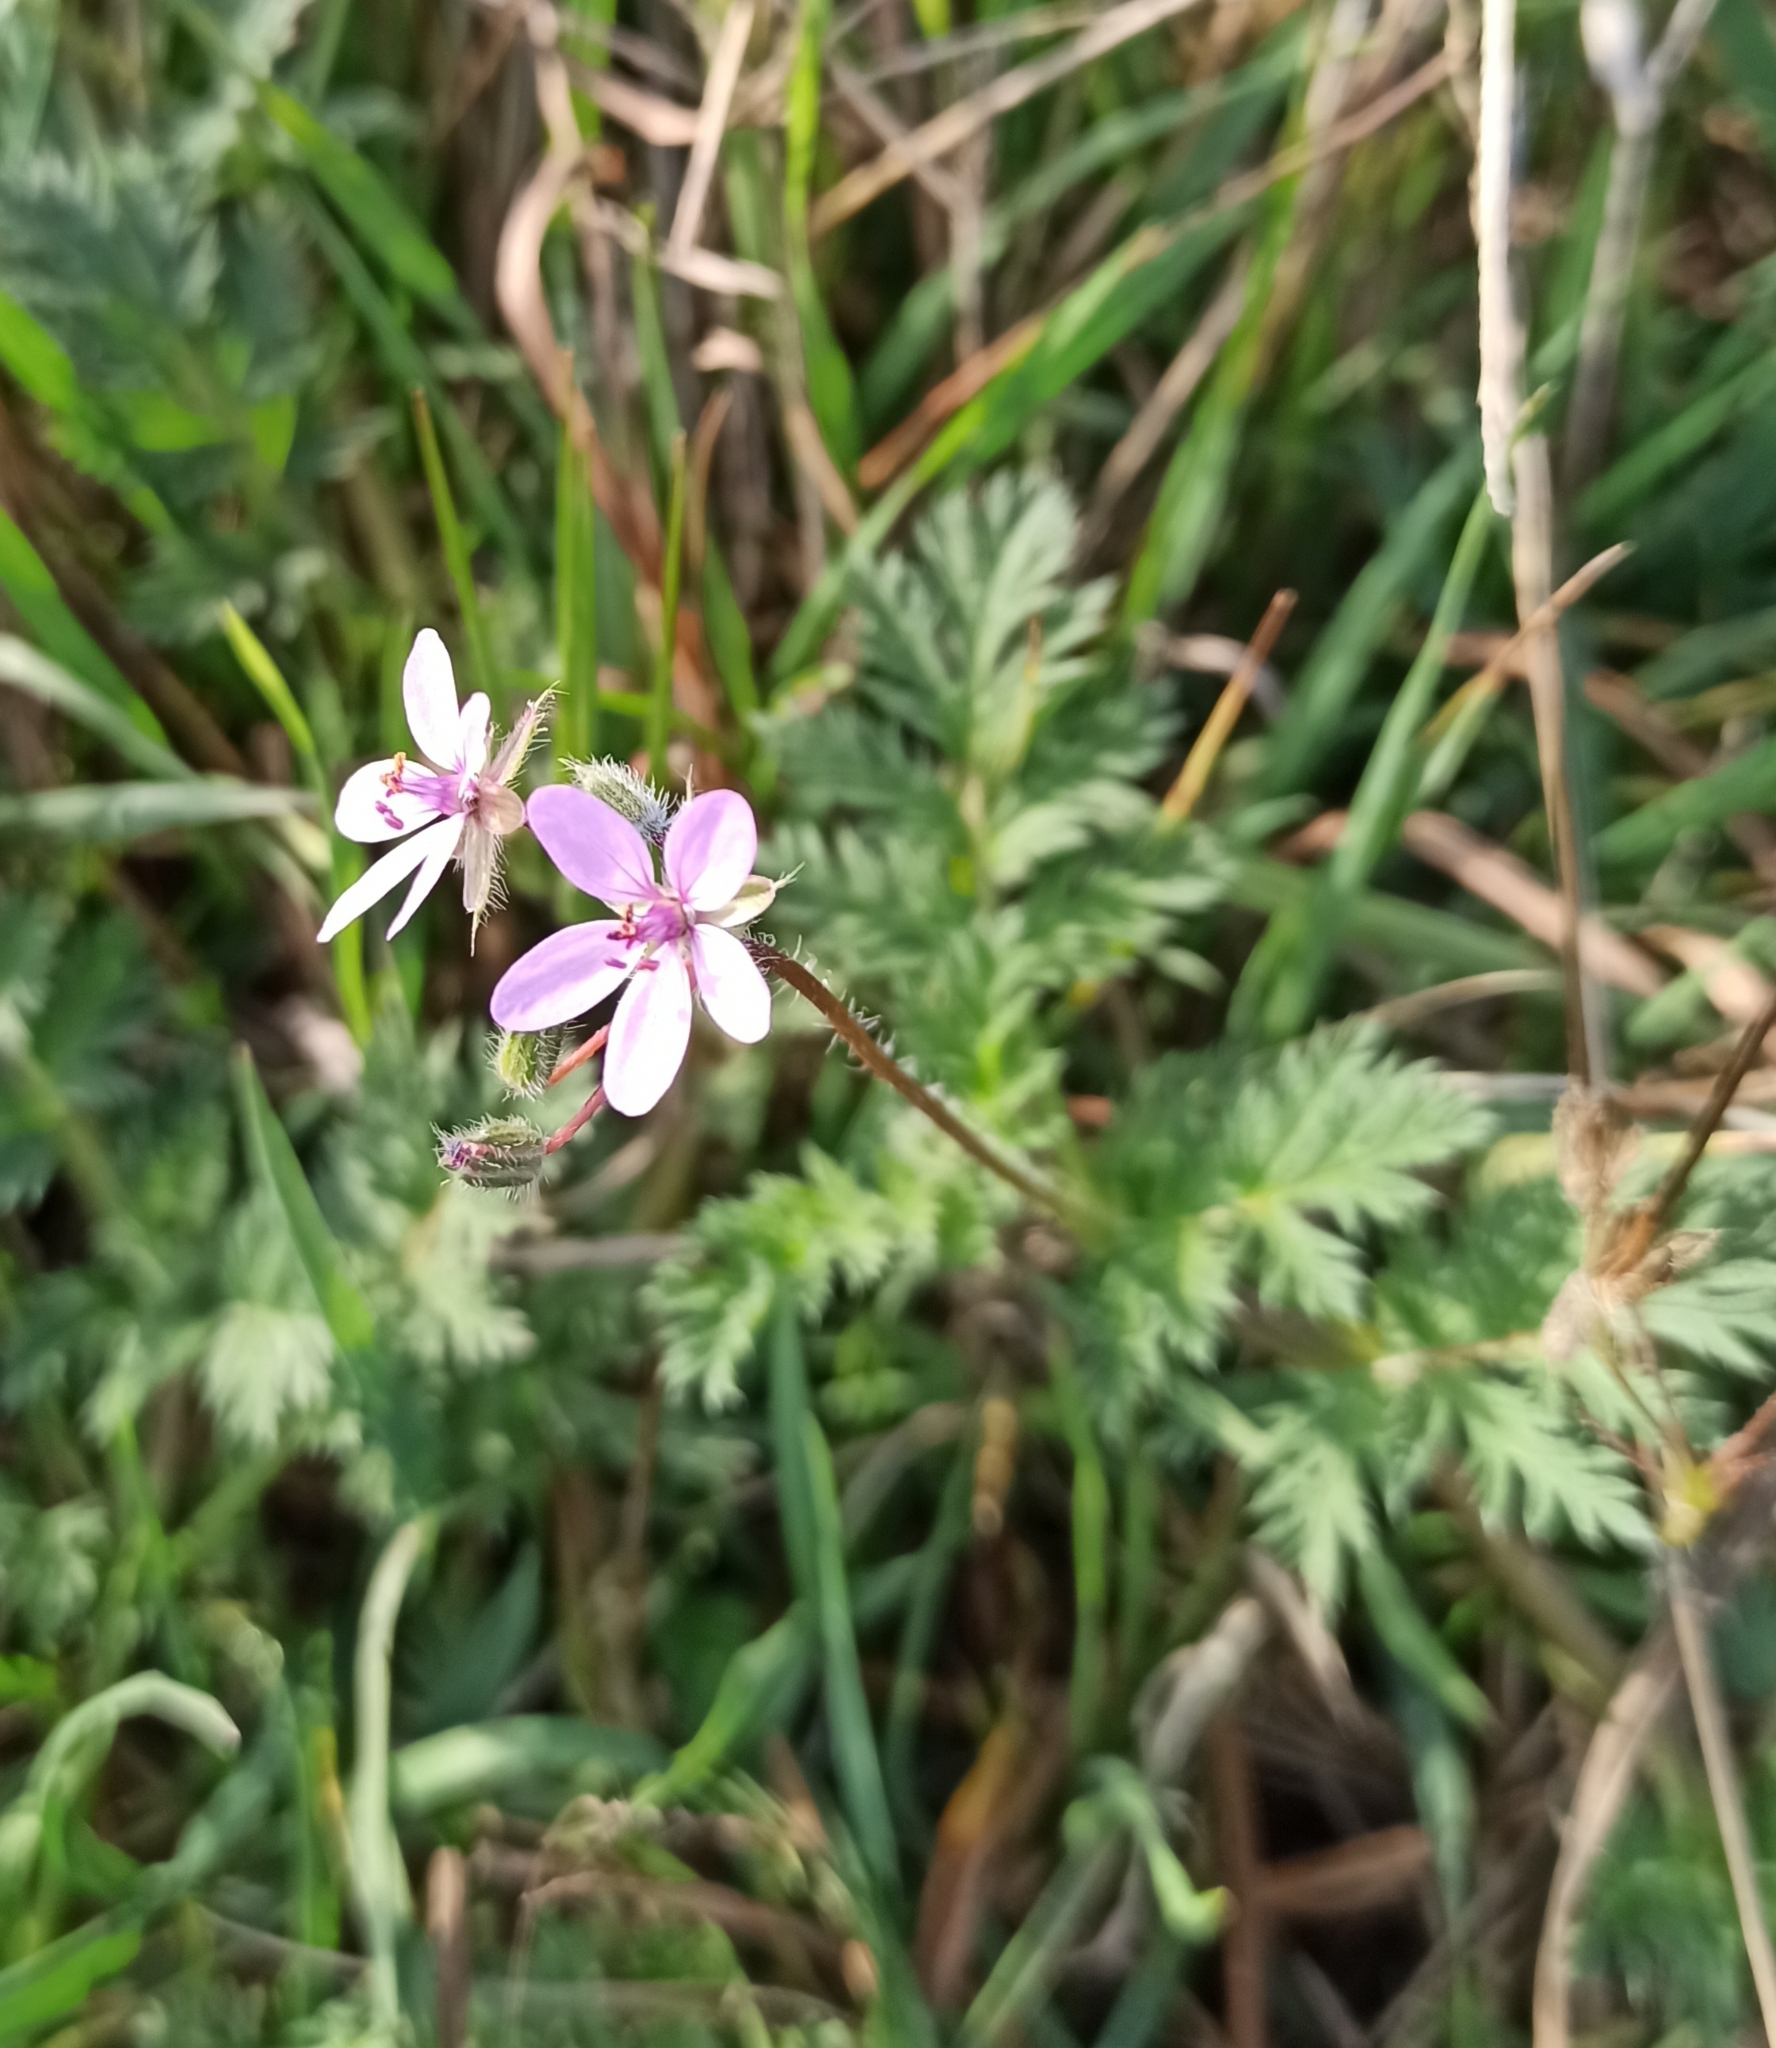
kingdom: Plantae
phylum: Tracheophyta
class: Magnoliopsida
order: Geraniales
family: Geraniaceae
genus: Erodium
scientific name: Erodium cicutarium
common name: Common stork's-bill
